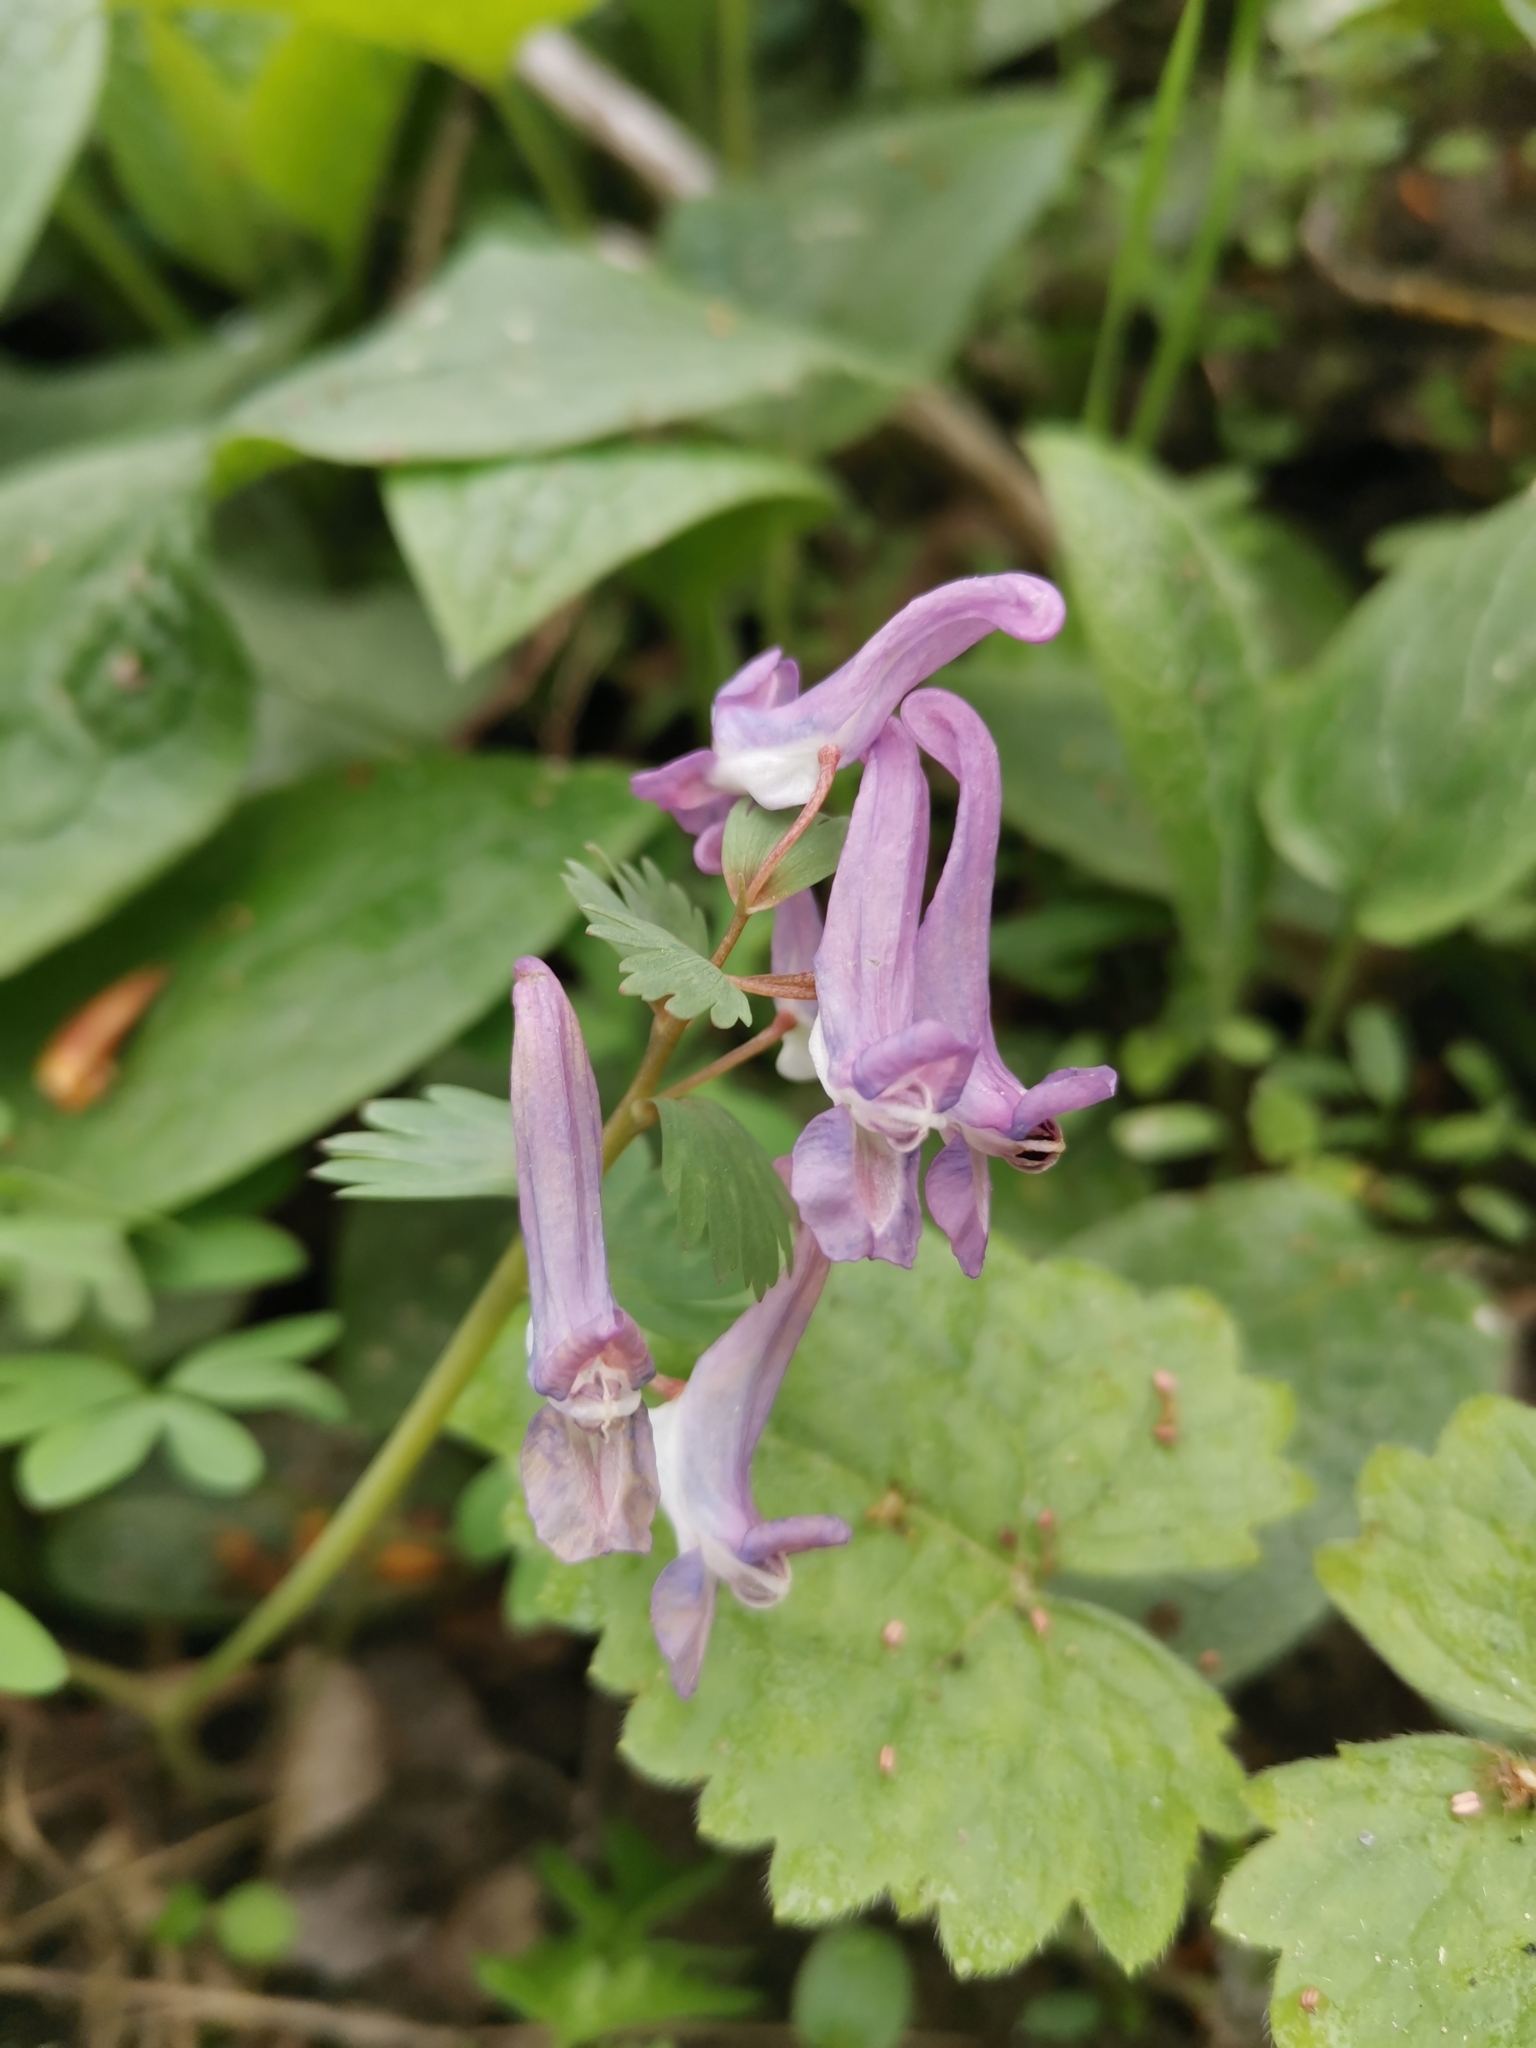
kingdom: Plantae
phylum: Tracheophyta
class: Magnoliopsida
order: Ranunculales
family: Papaveraceae
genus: Corydalis
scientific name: Corydalis solida
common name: Bird-in-a-bush
